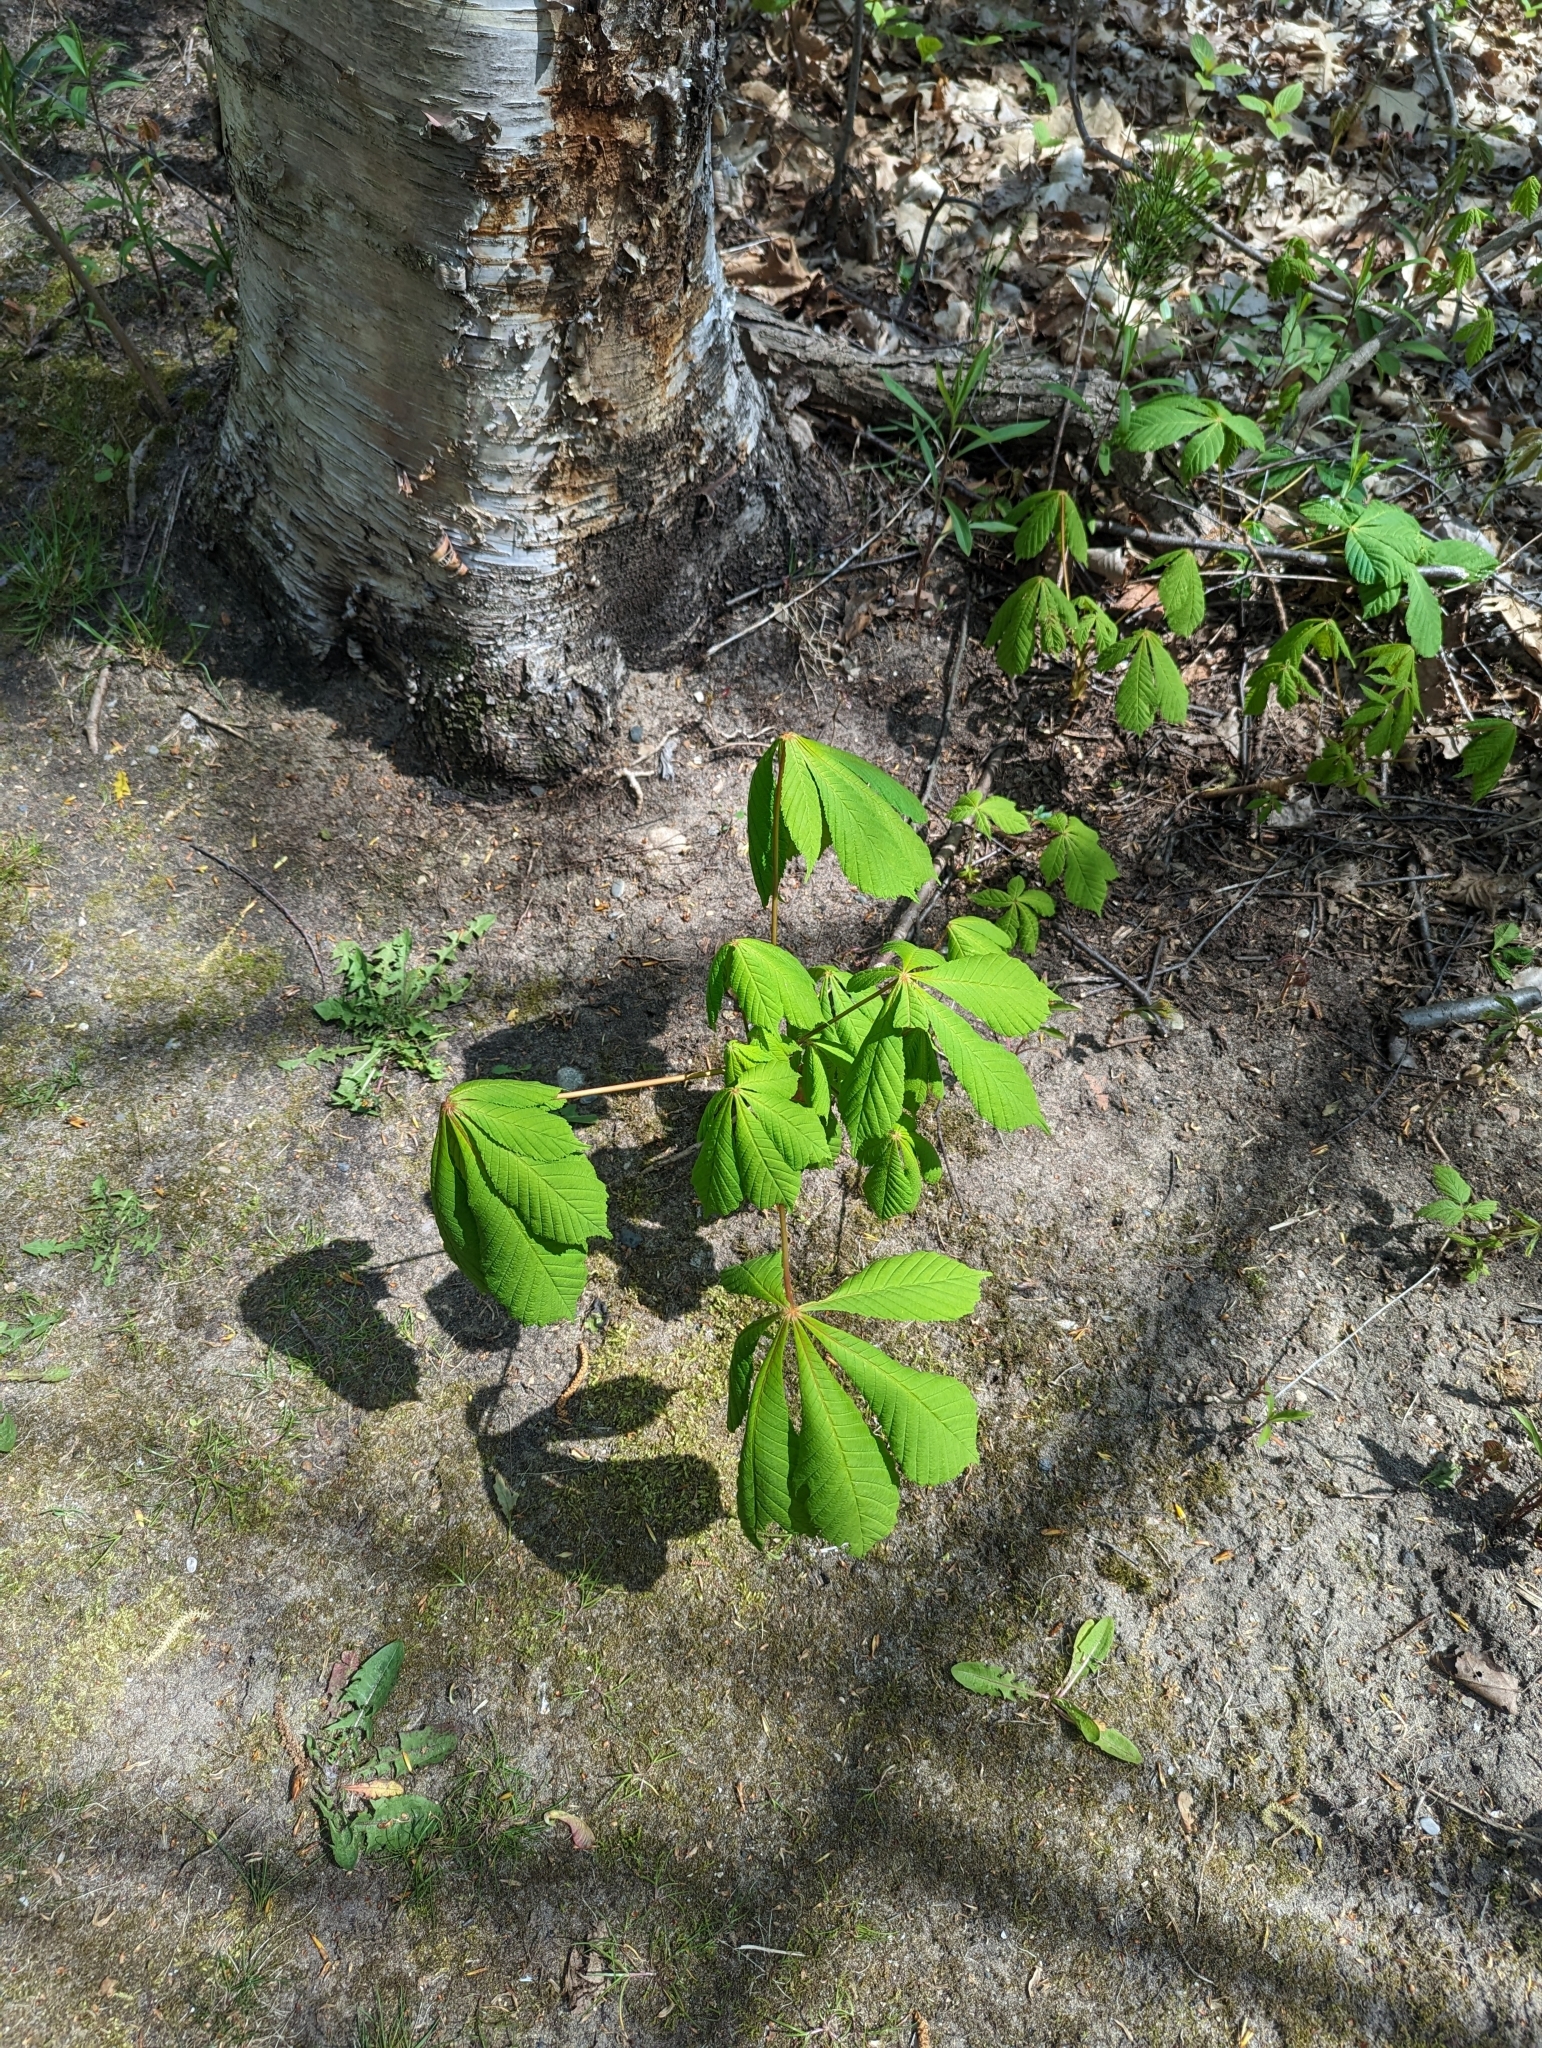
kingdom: Plantae
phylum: Tracheophyta
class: Magnoliopsida
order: Sapindales
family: Sapindaceae
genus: Aesculus
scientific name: Aesculus hippocastanum
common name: Horse-chestnut
